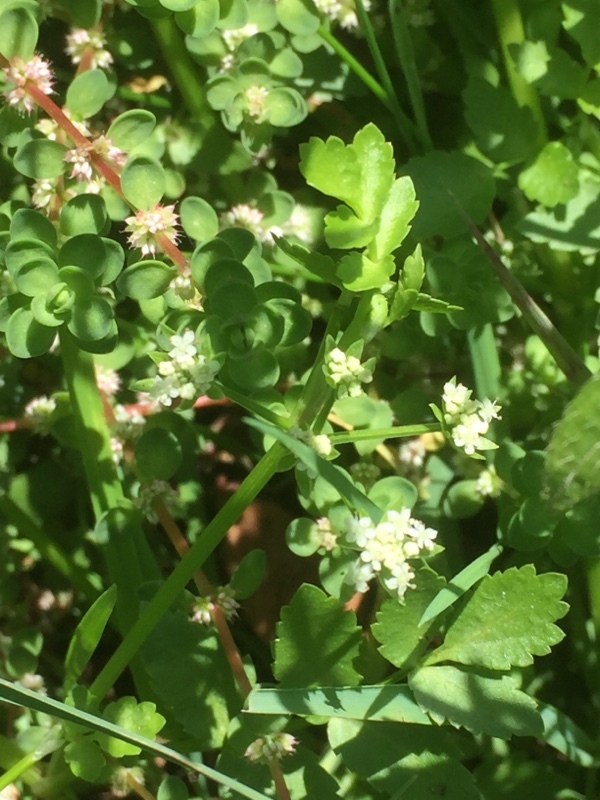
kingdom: Plantae
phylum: Tracheophyta
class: Magnoliopsida
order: Caryophyllales
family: Caryophyllaceae
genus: Illecebrum
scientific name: Illecebrum verticillatum
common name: Coral necklace
